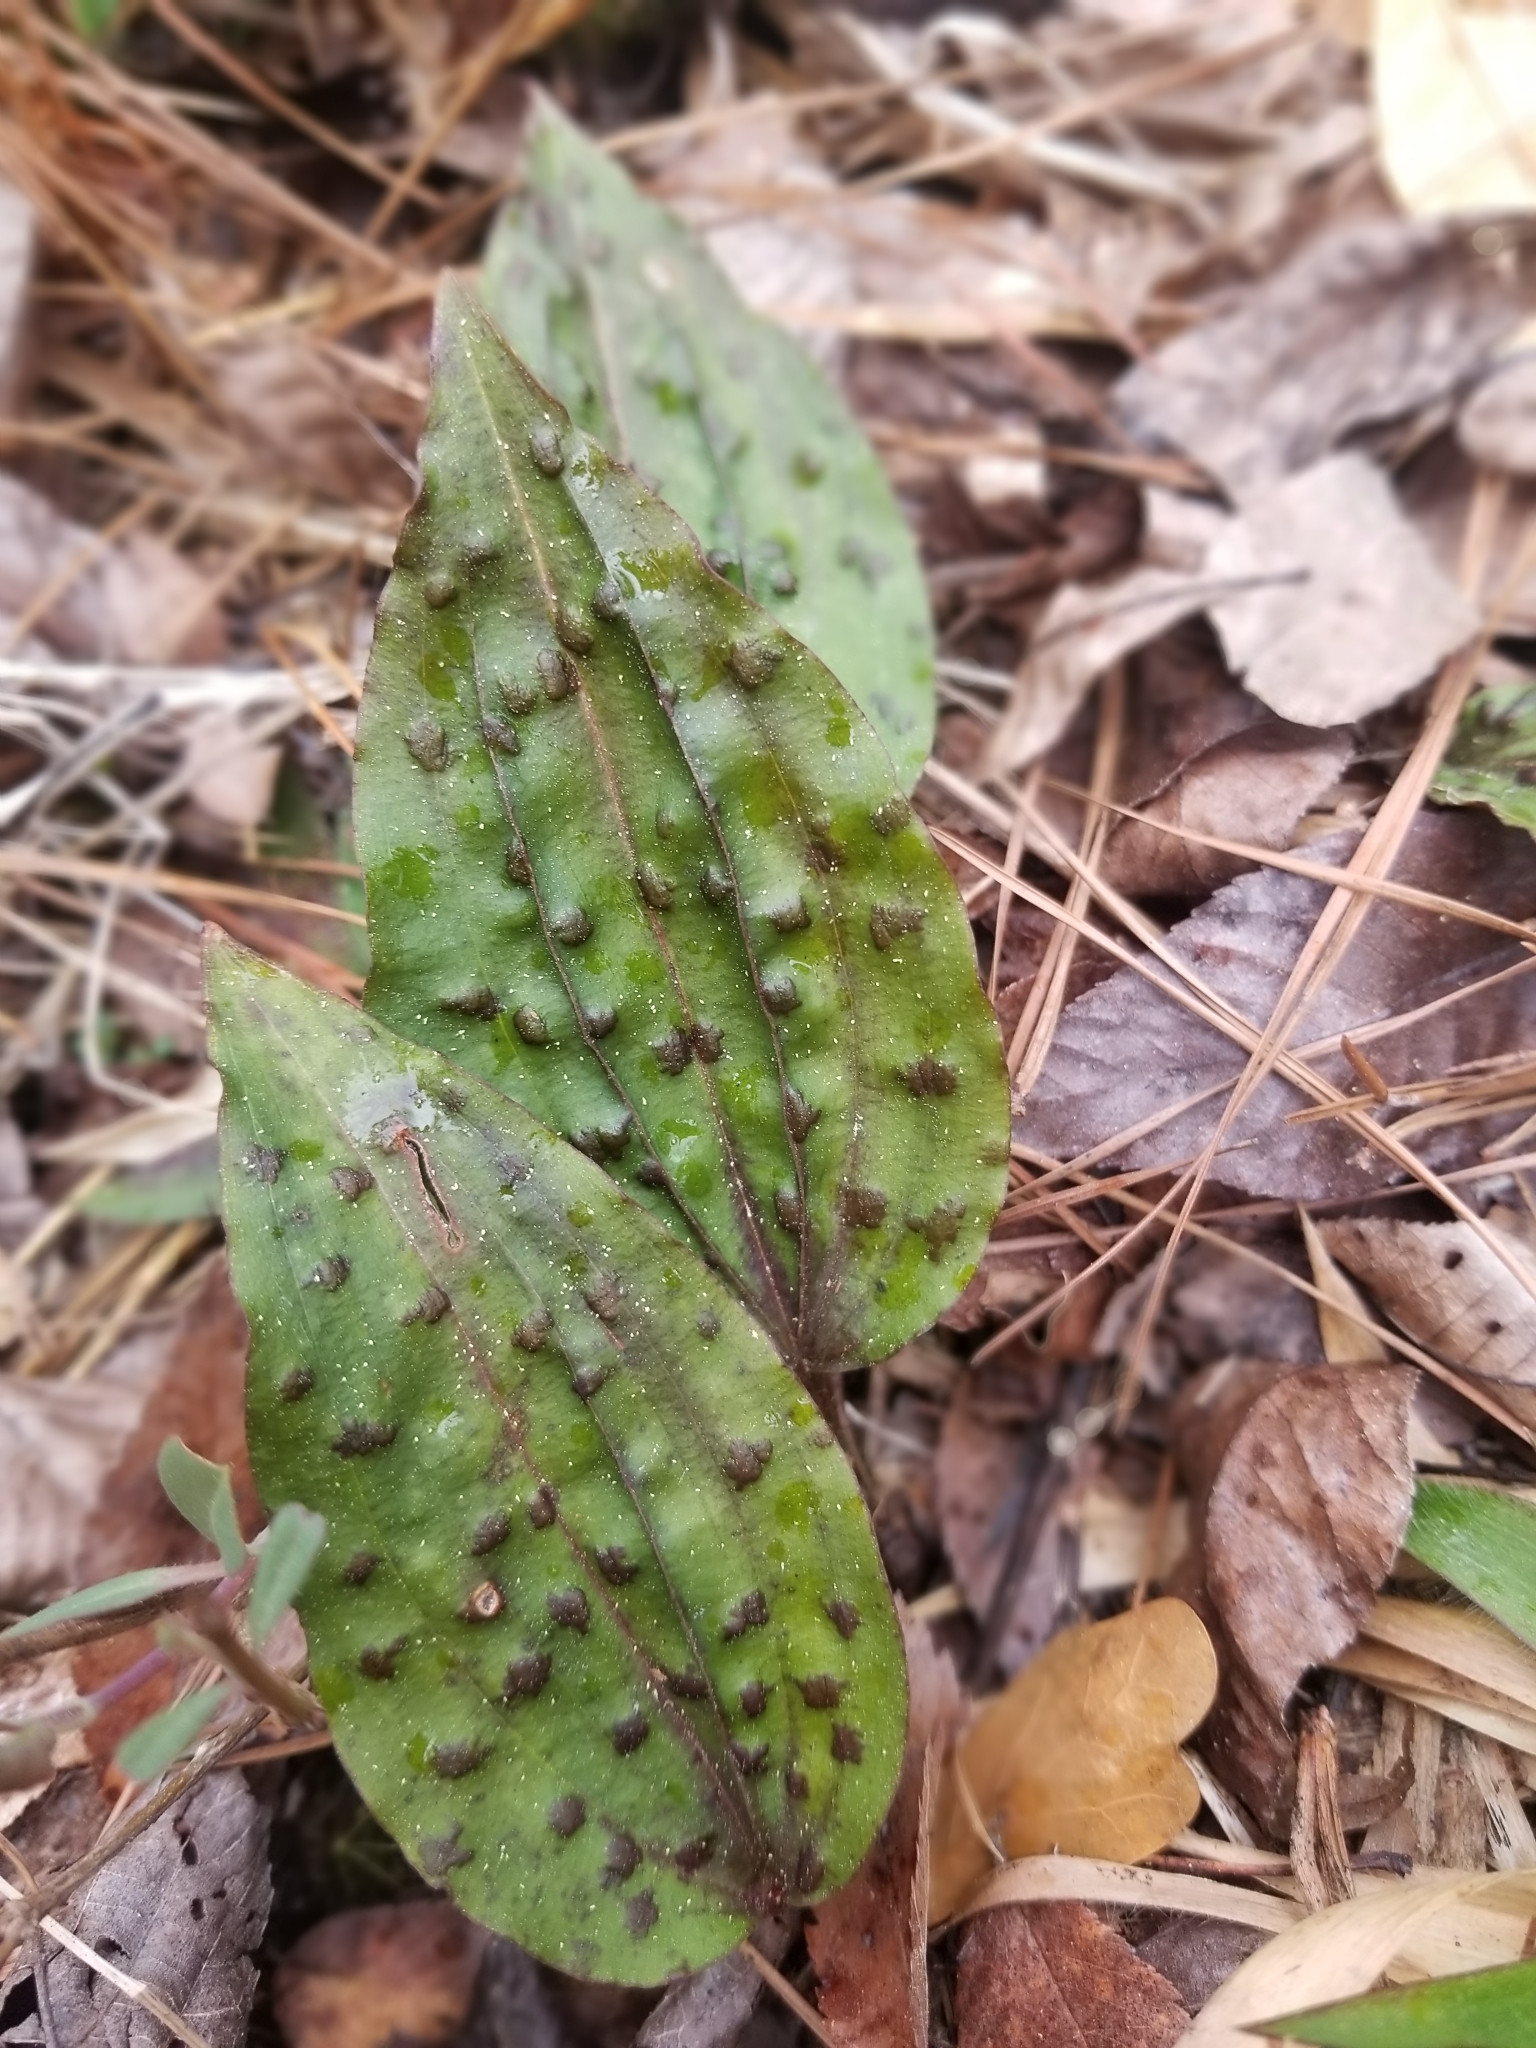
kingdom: Plantae
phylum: Tracheophyta
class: Liliopsida
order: Asparagales
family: Orchidaceae
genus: Tipularia
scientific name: Tipularia discolor
